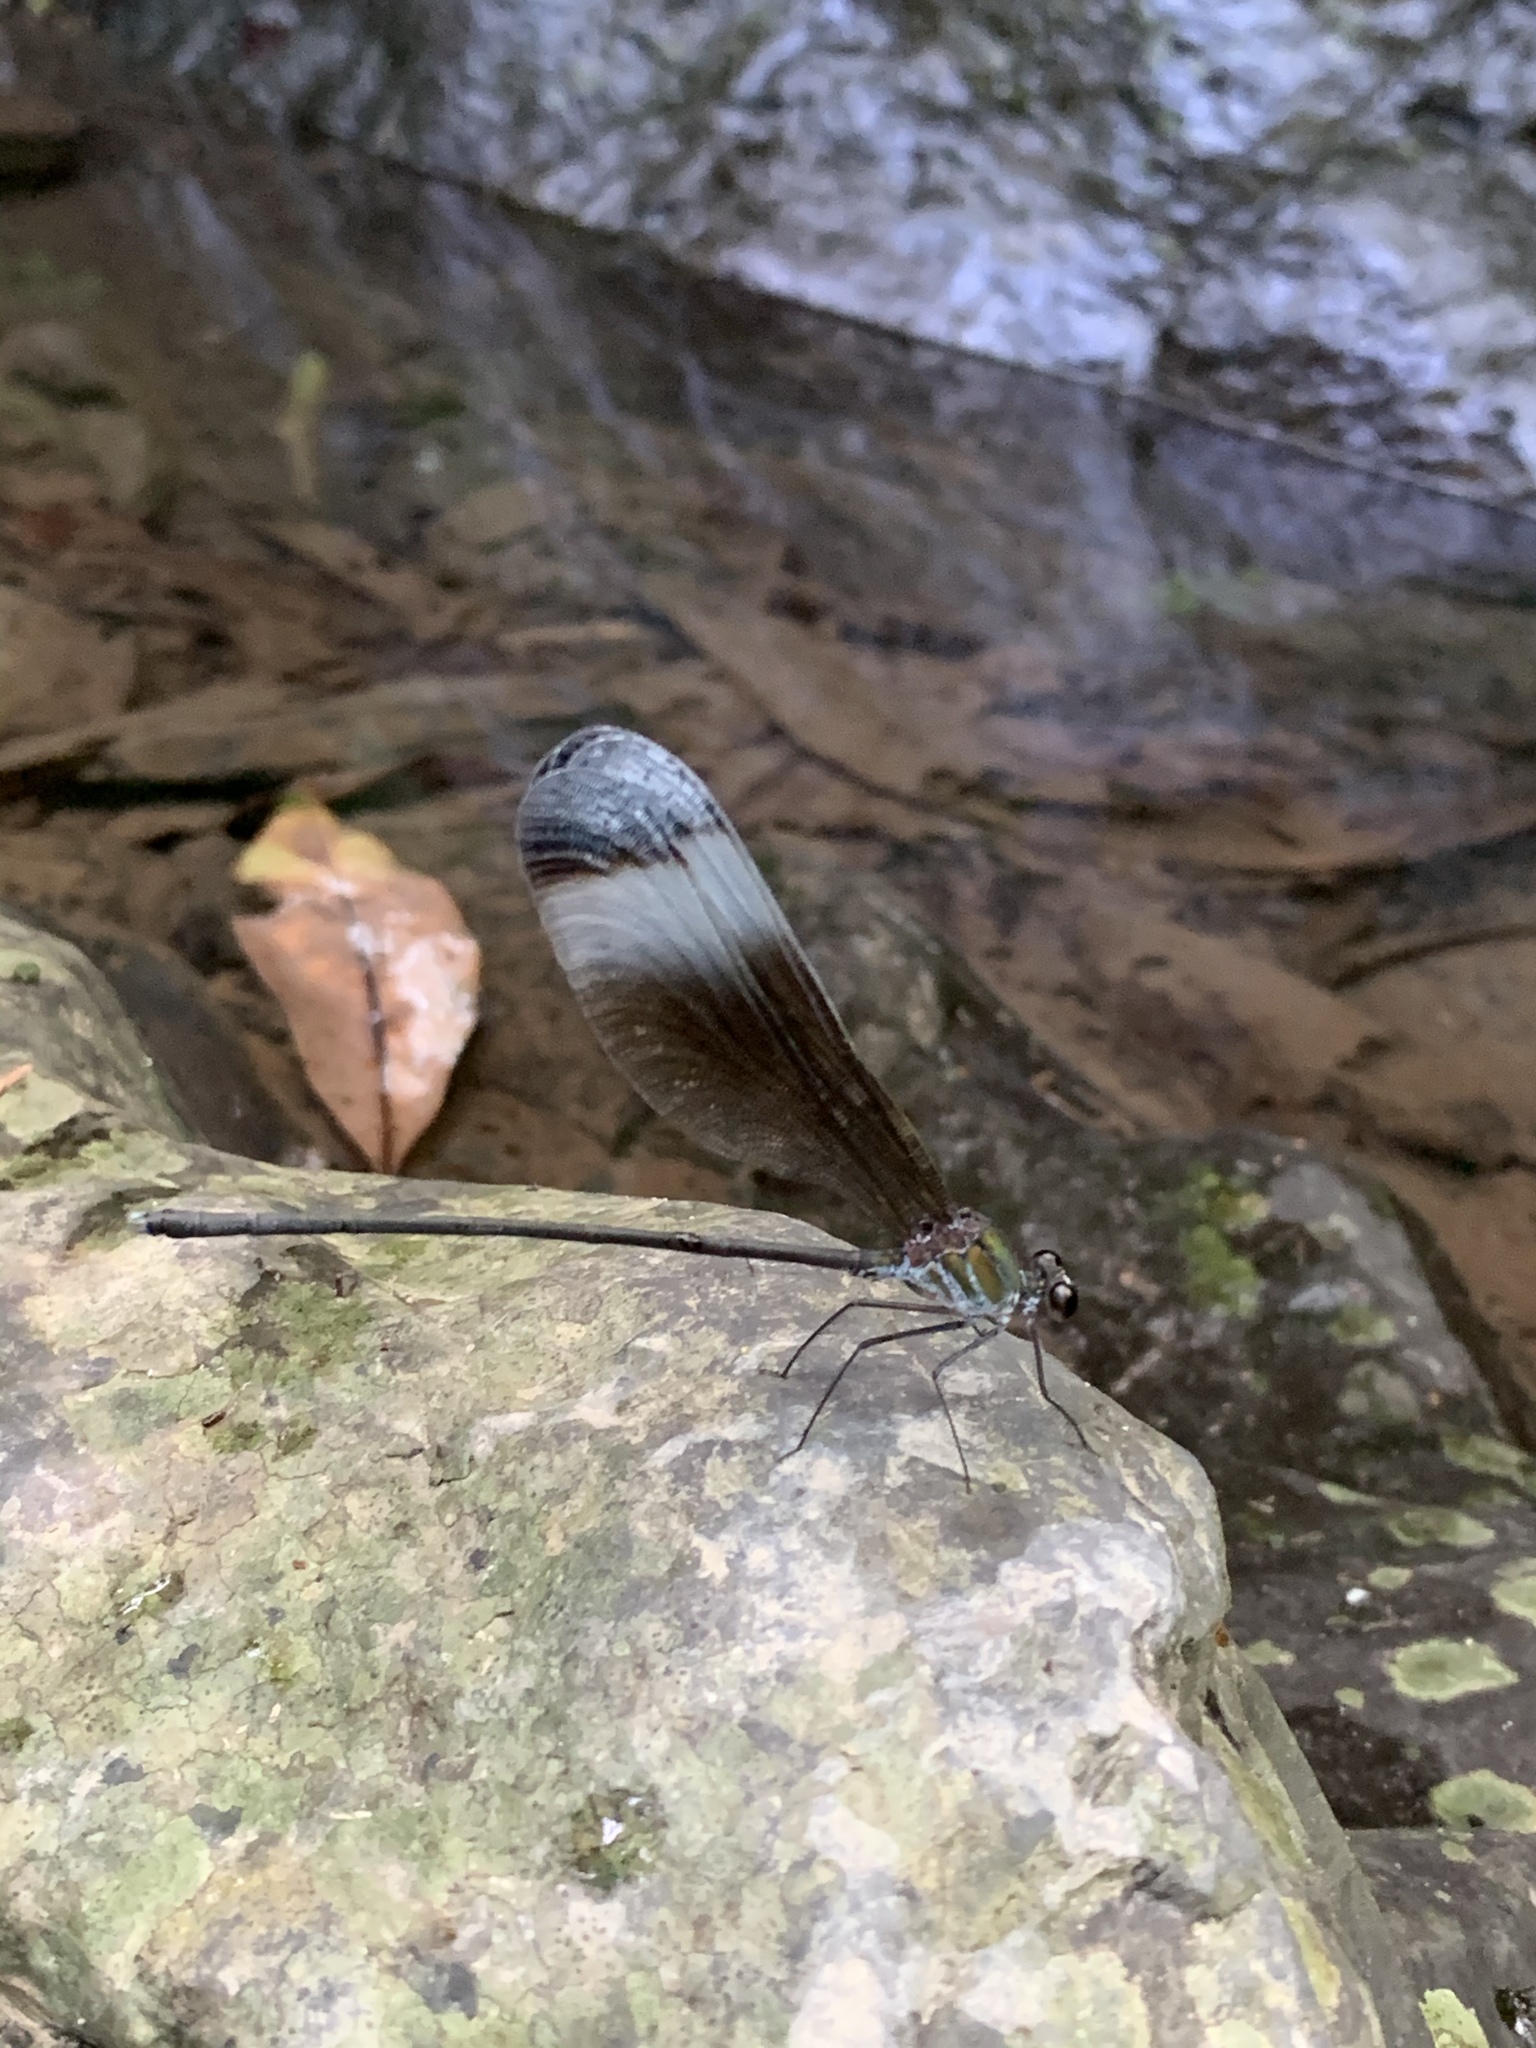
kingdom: Animalia
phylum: Arthropoda
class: Insecta
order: Odonata
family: Calopterygidae
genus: Psolodesmus
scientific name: Psolodesmus mandarinus
